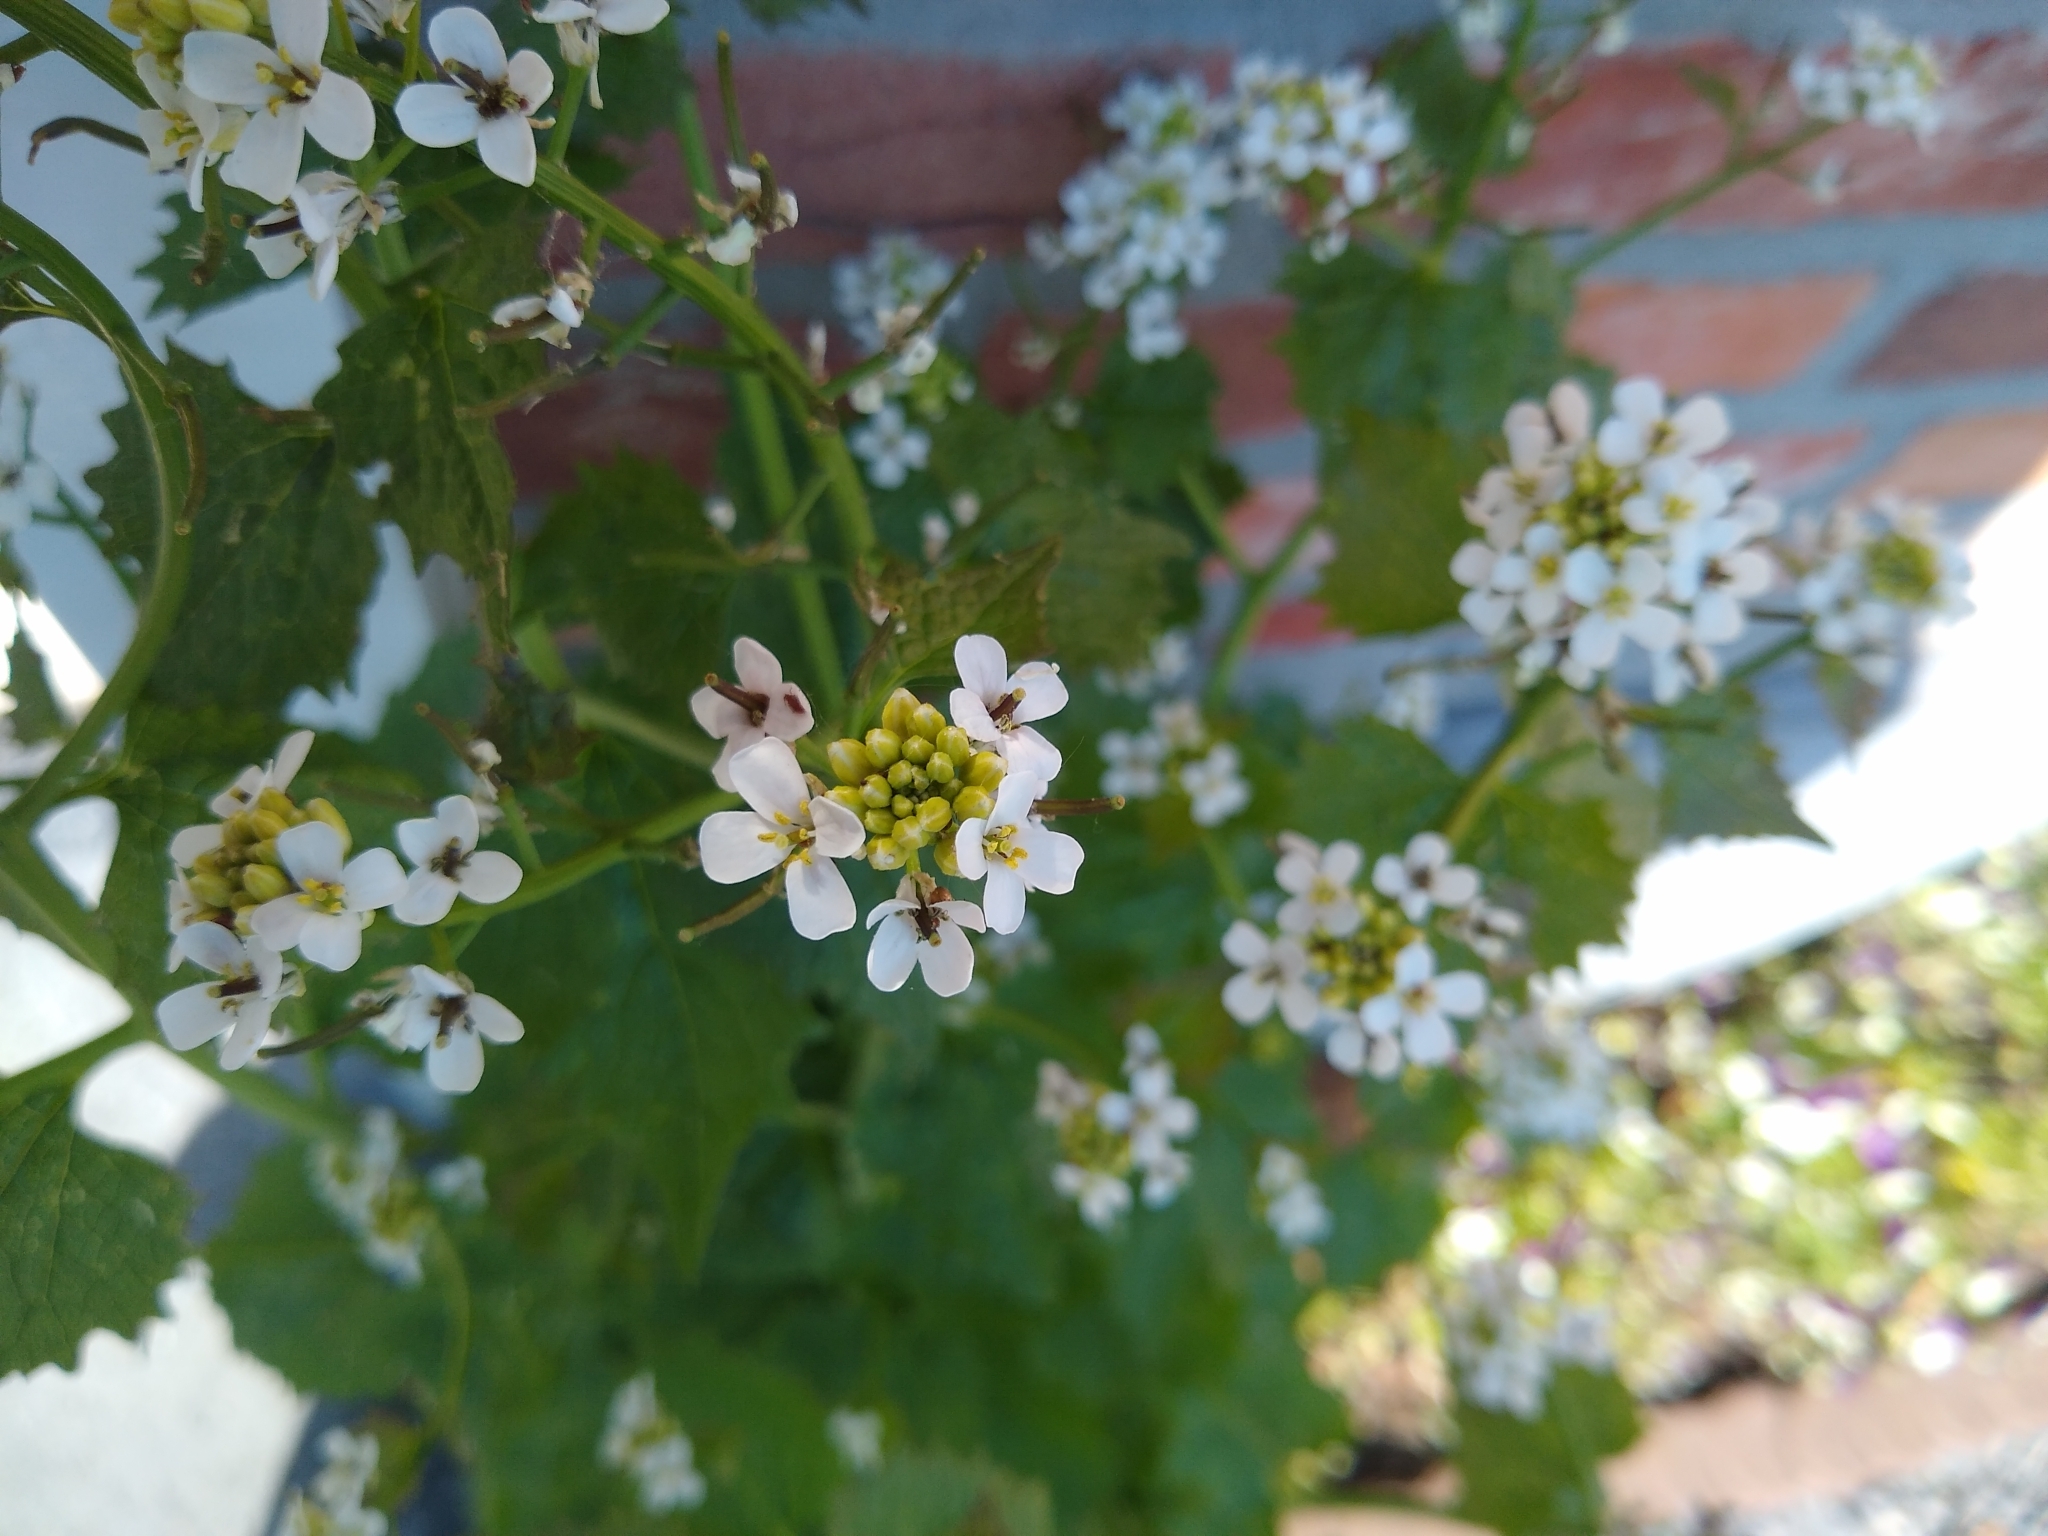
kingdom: Plantae
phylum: Tracheophyta
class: Magnoliopsida
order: Brassicales
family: Brassicaceae
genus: Alliaria
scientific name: Alliaria petiolata
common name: Garlic mustard
